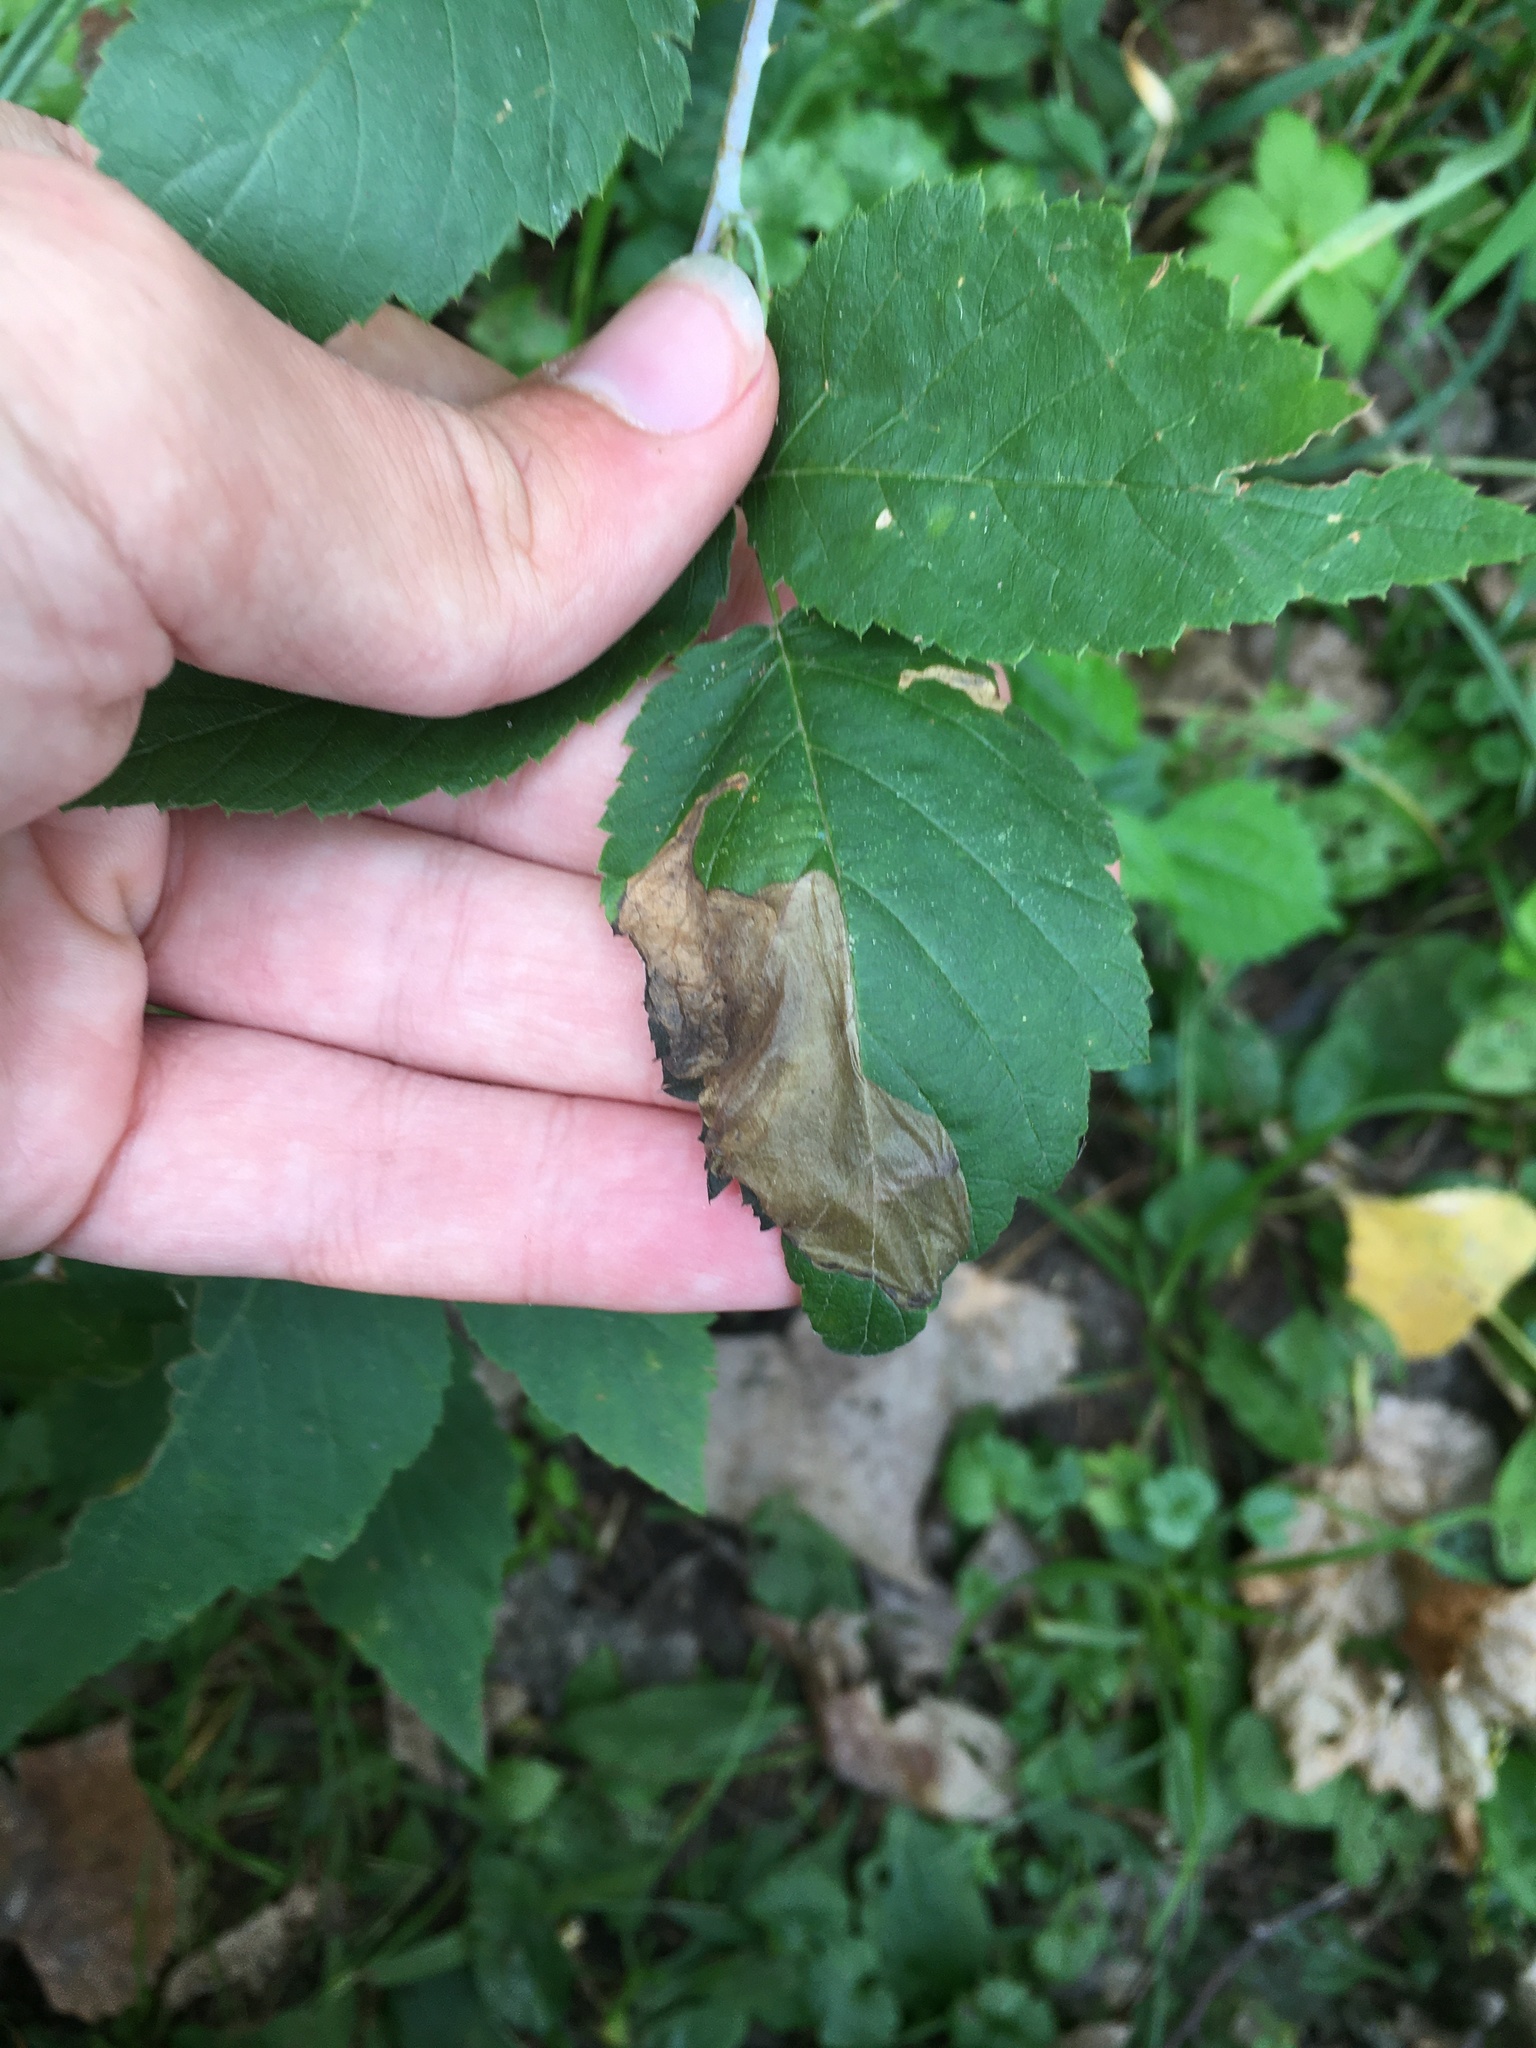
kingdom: Animalia
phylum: Arthropoda
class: Insecta
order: Hymenoptera
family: Tenthredinidae
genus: Metallus
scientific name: Metallus capitalis
